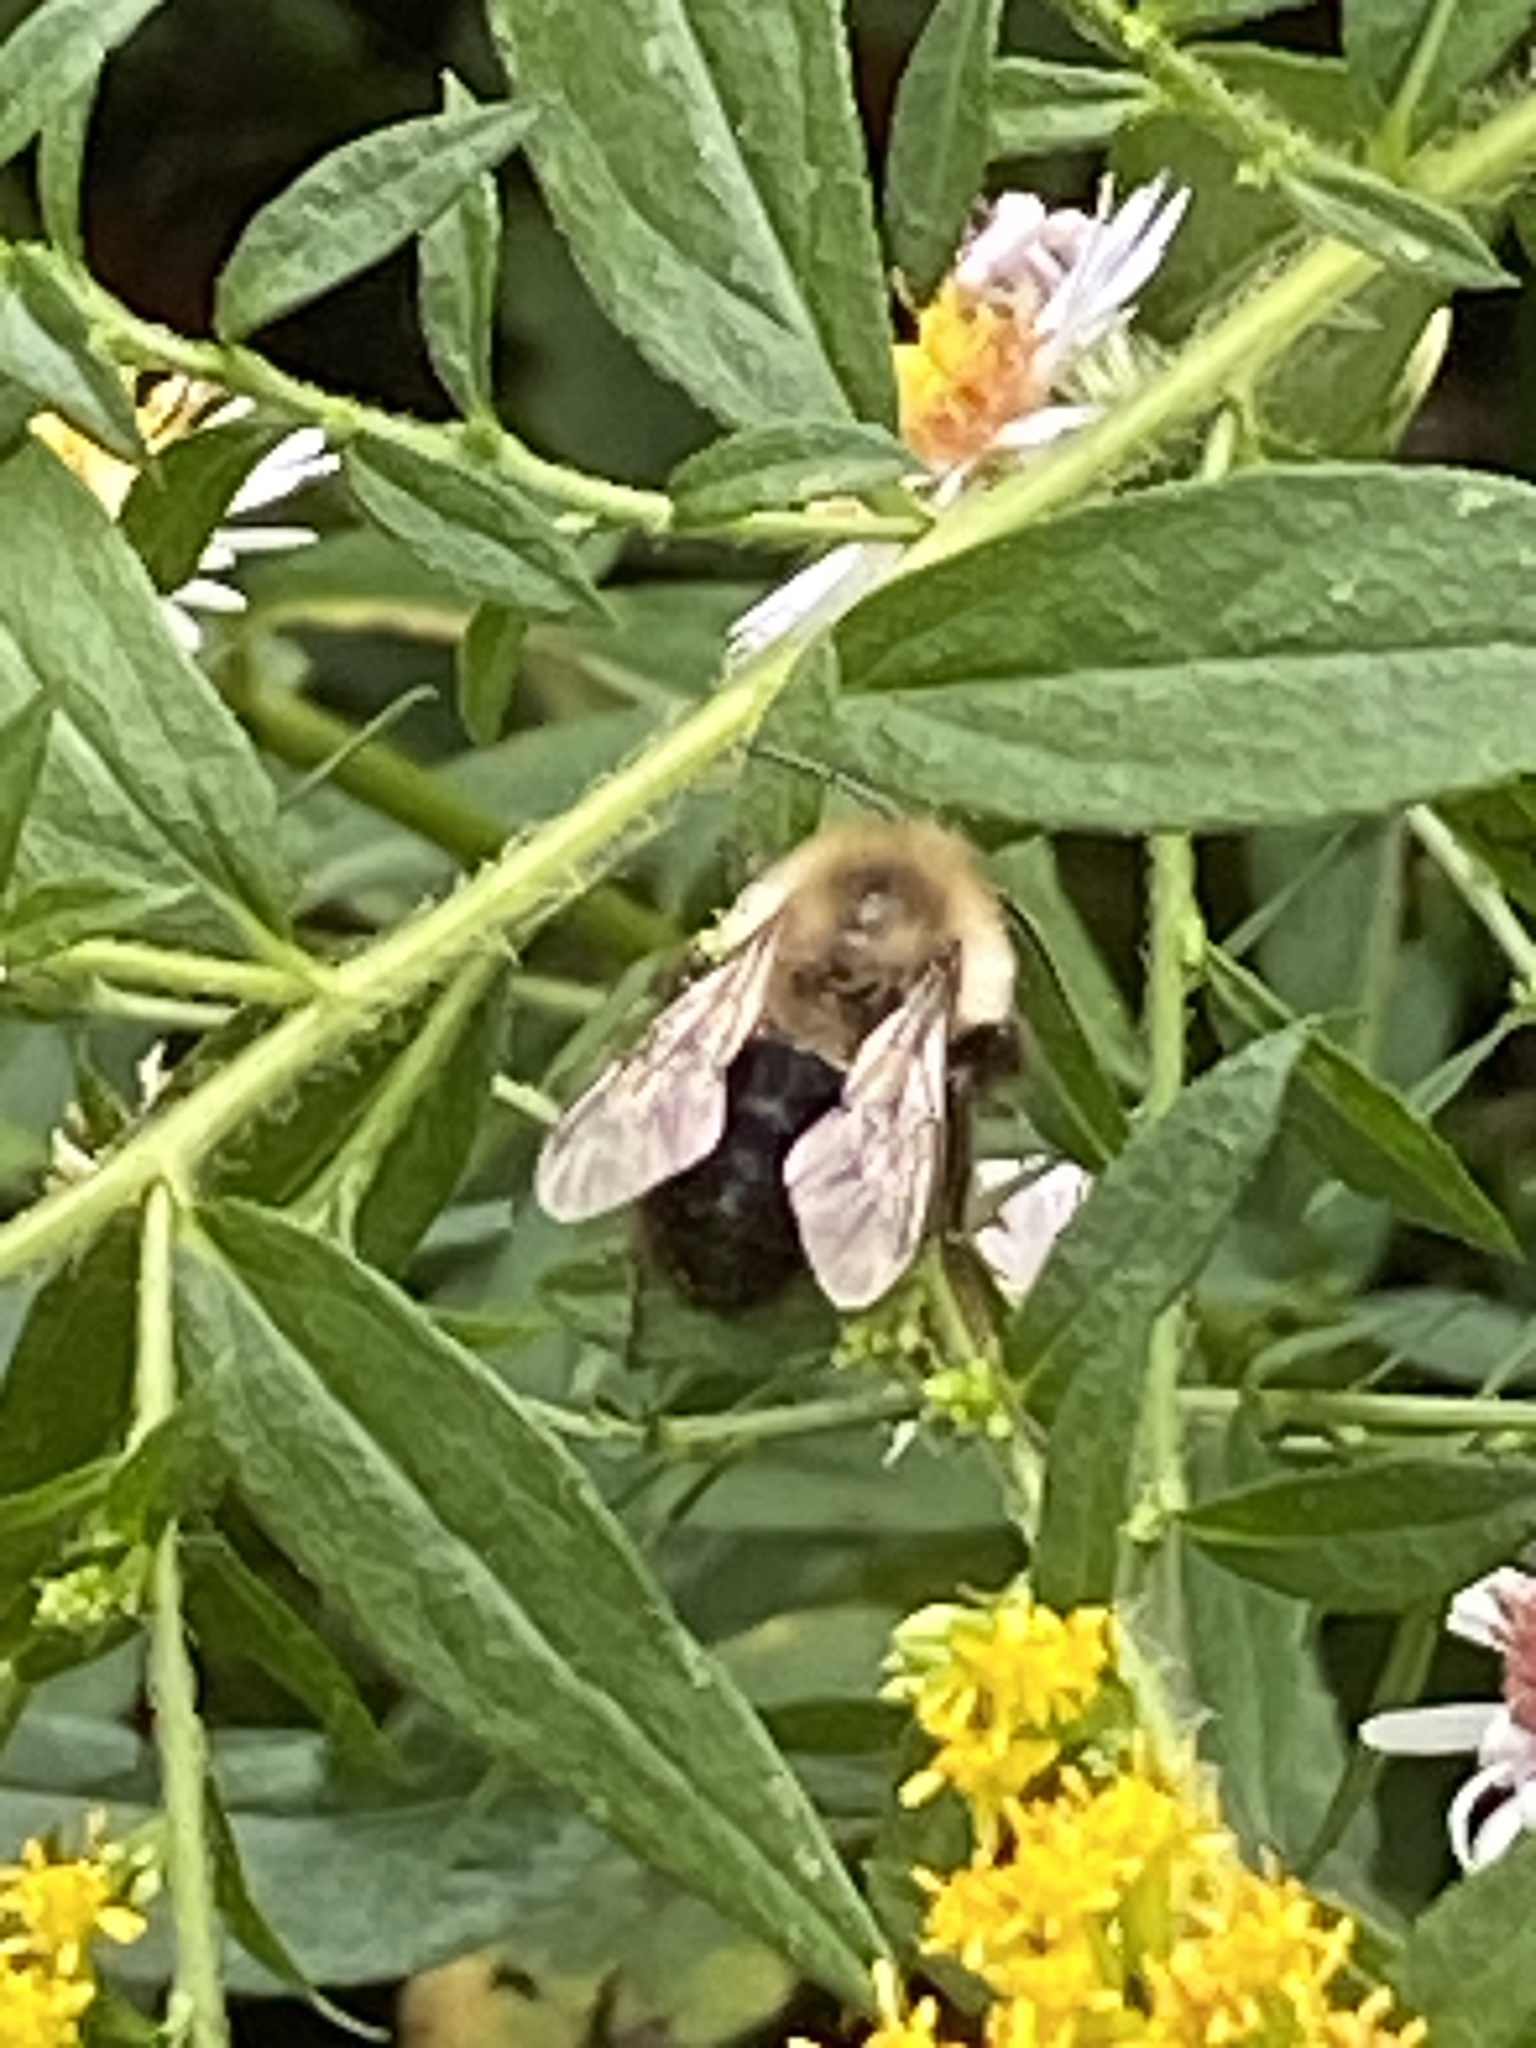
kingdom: Animalia
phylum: Arthropoda
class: Insecta
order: Hymenoptera
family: Apidae
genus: Bombus
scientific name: Bombus impatiens
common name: Common eastern bumble bee
